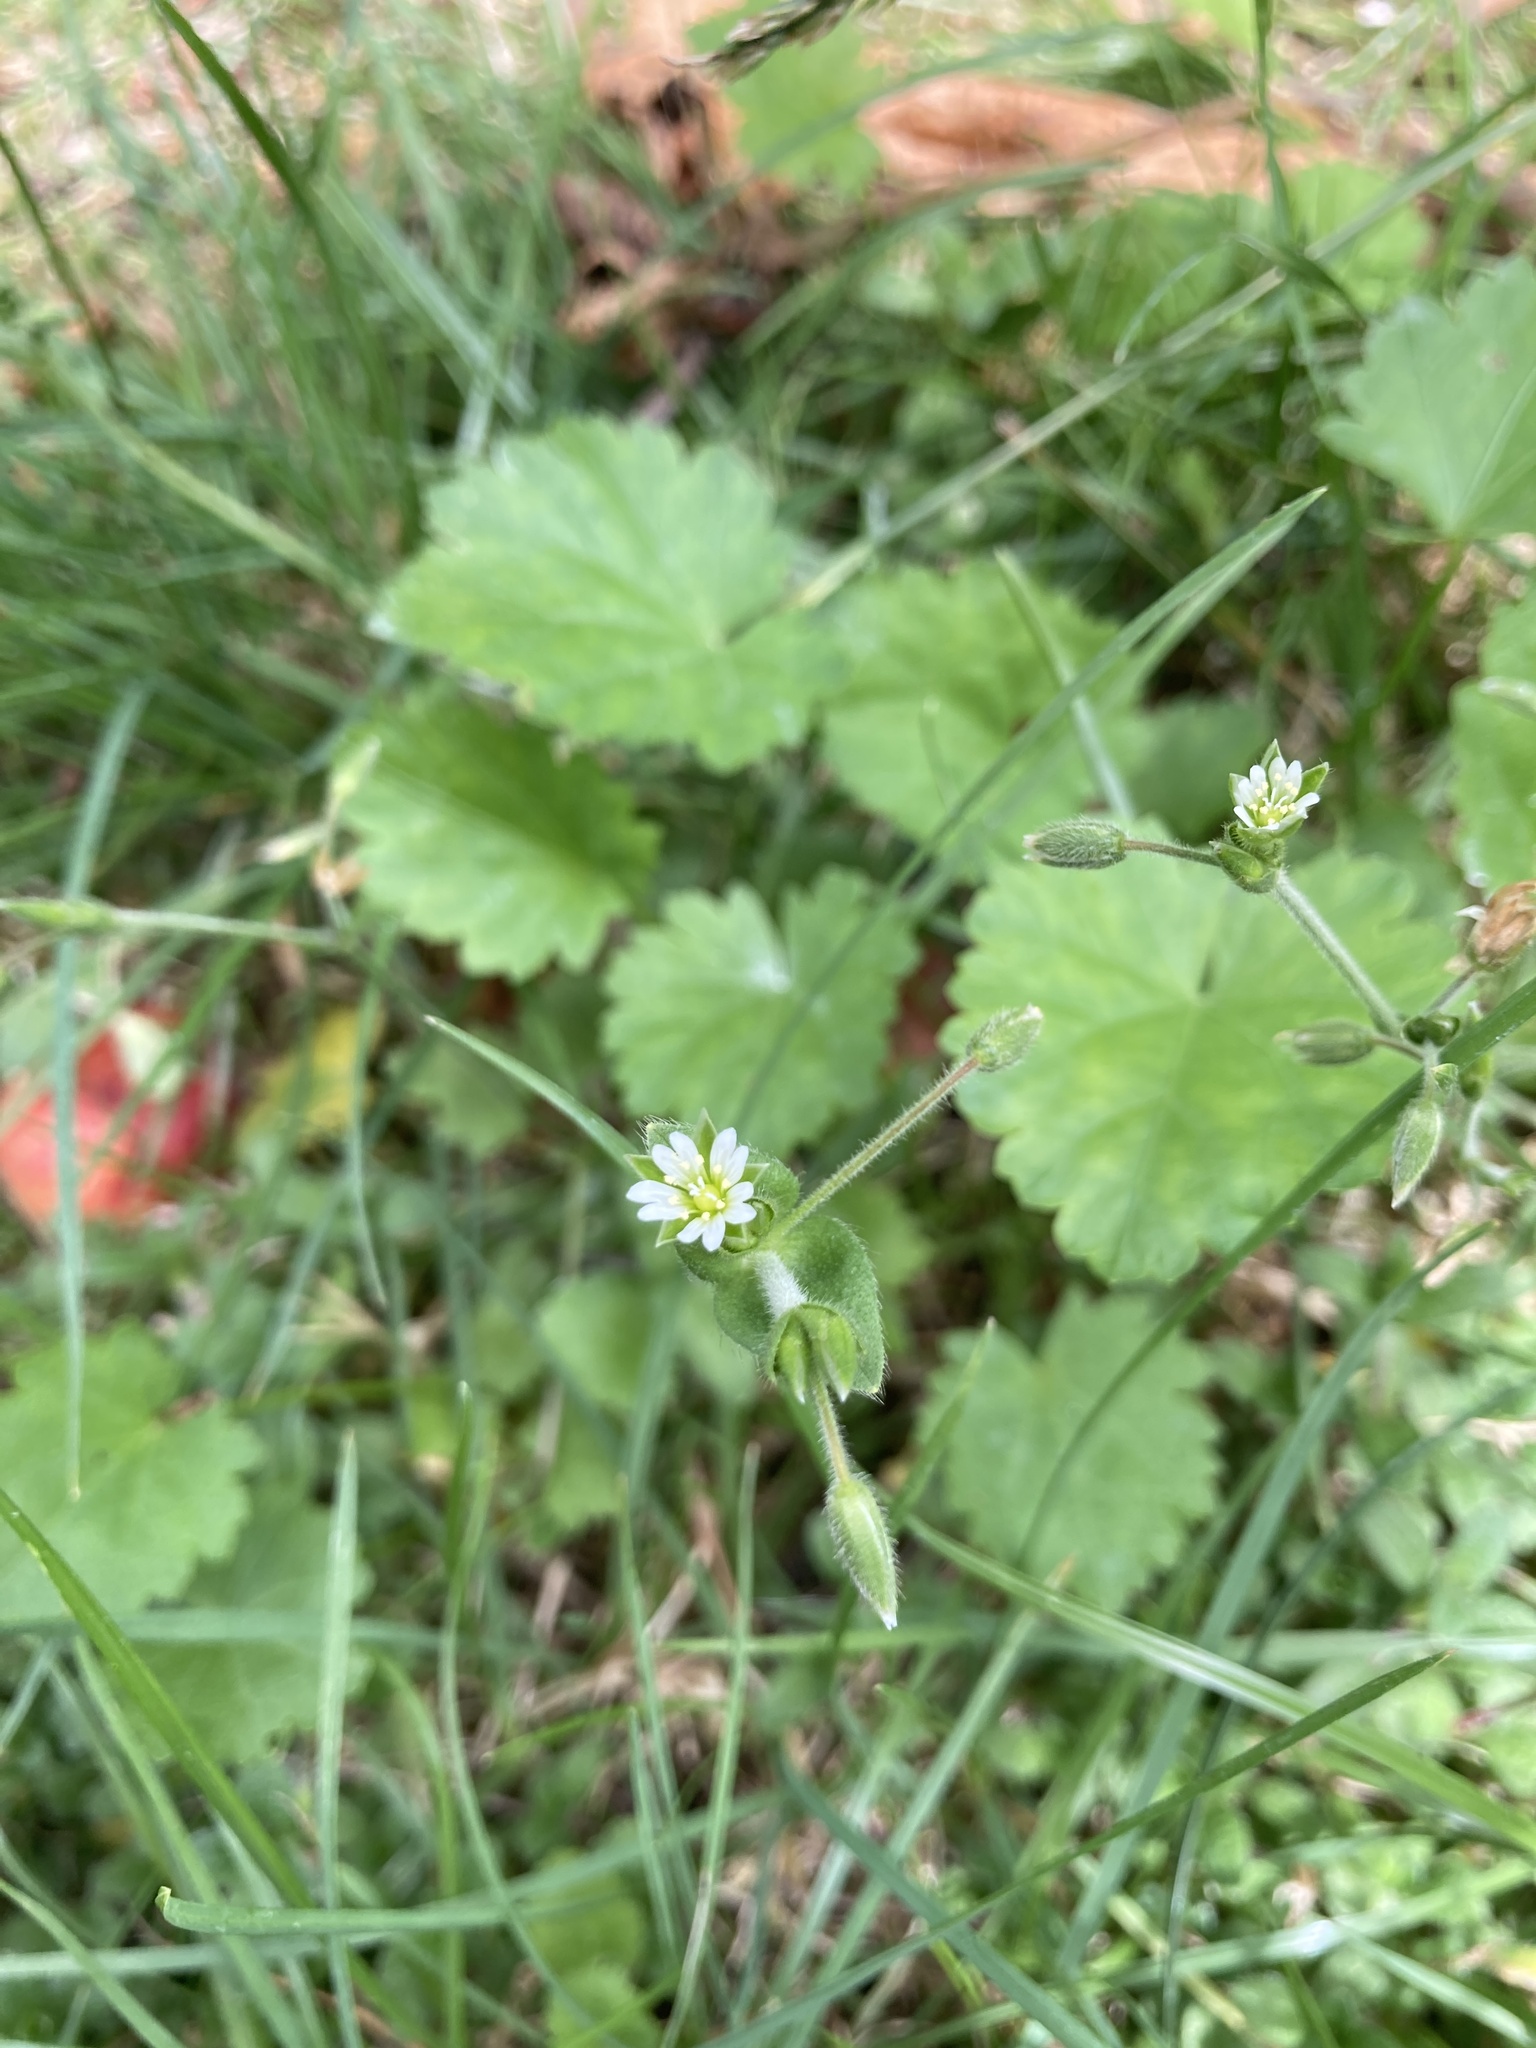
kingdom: Plantae
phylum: Tracheophyta
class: Magnoliopsida
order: Caryophyllales
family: Caryophyllaceae
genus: Cerastium
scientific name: Cerastium fontanum
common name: Common mouse-ear
